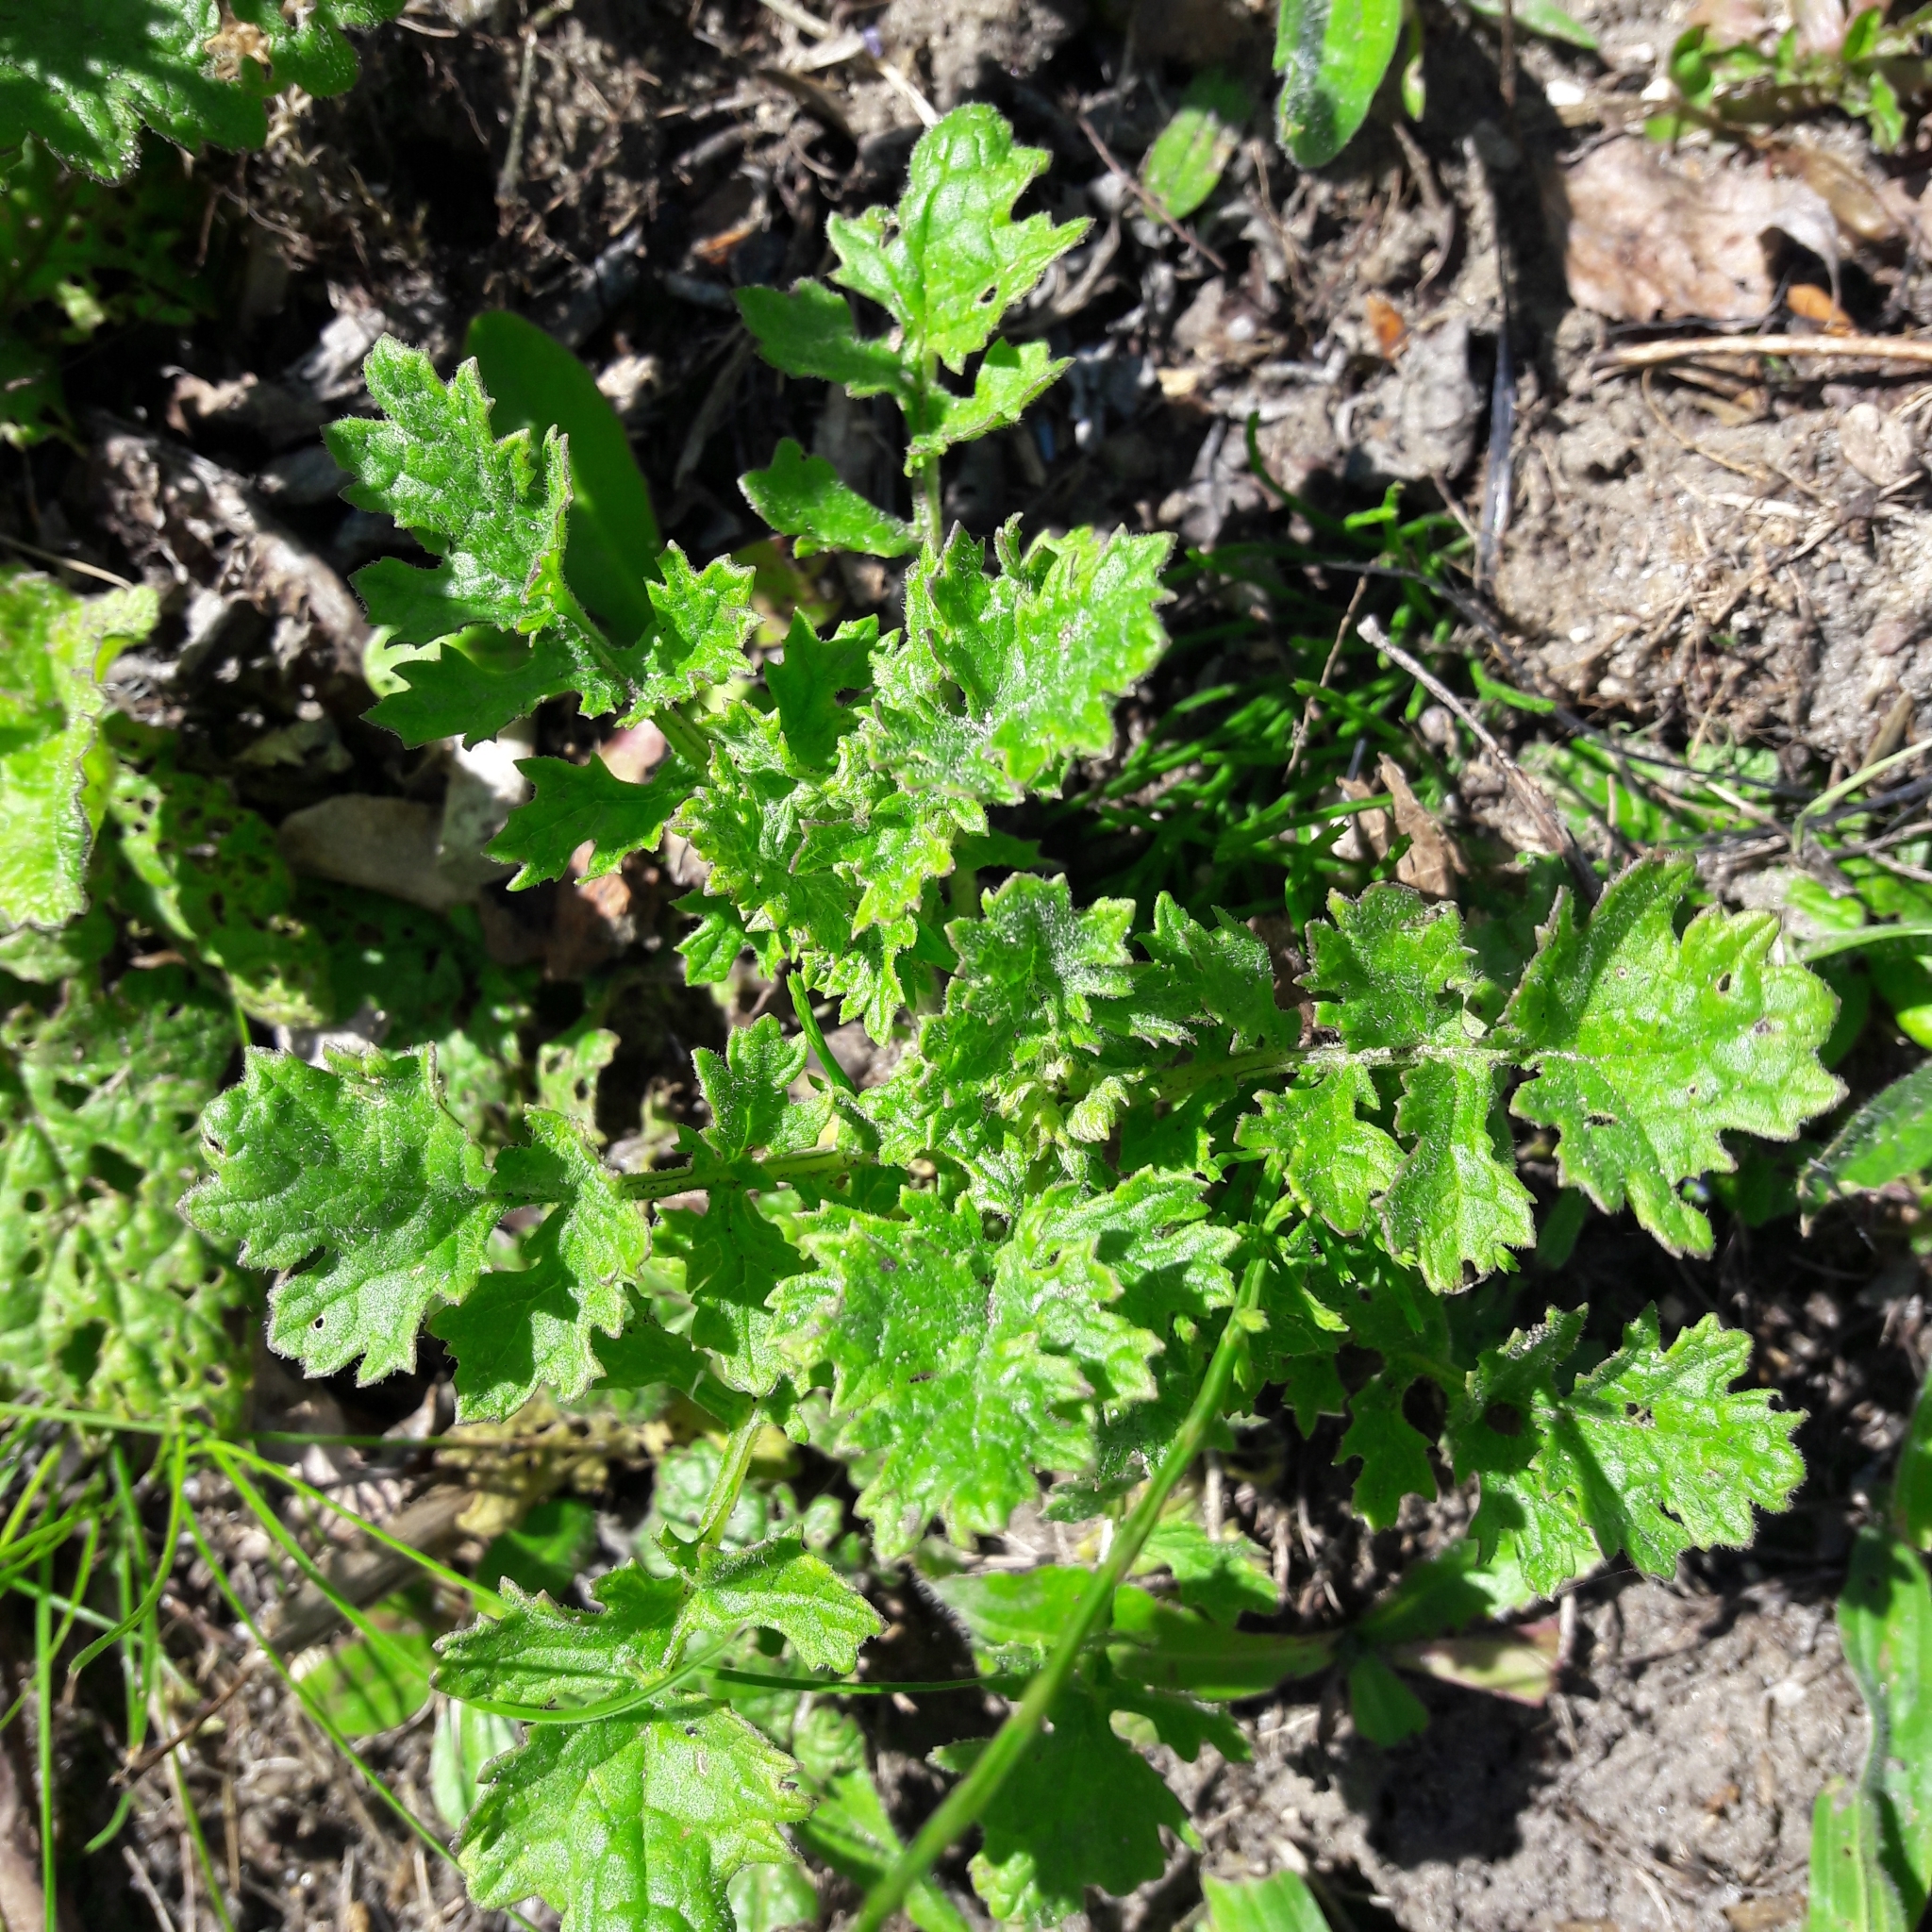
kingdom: Plantae
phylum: Tracheophyta
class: Magnoliopsida
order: Asterales
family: Asteraceae
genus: Jacobaea
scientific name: Jacobaea vulgaris
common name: Stinking willie
